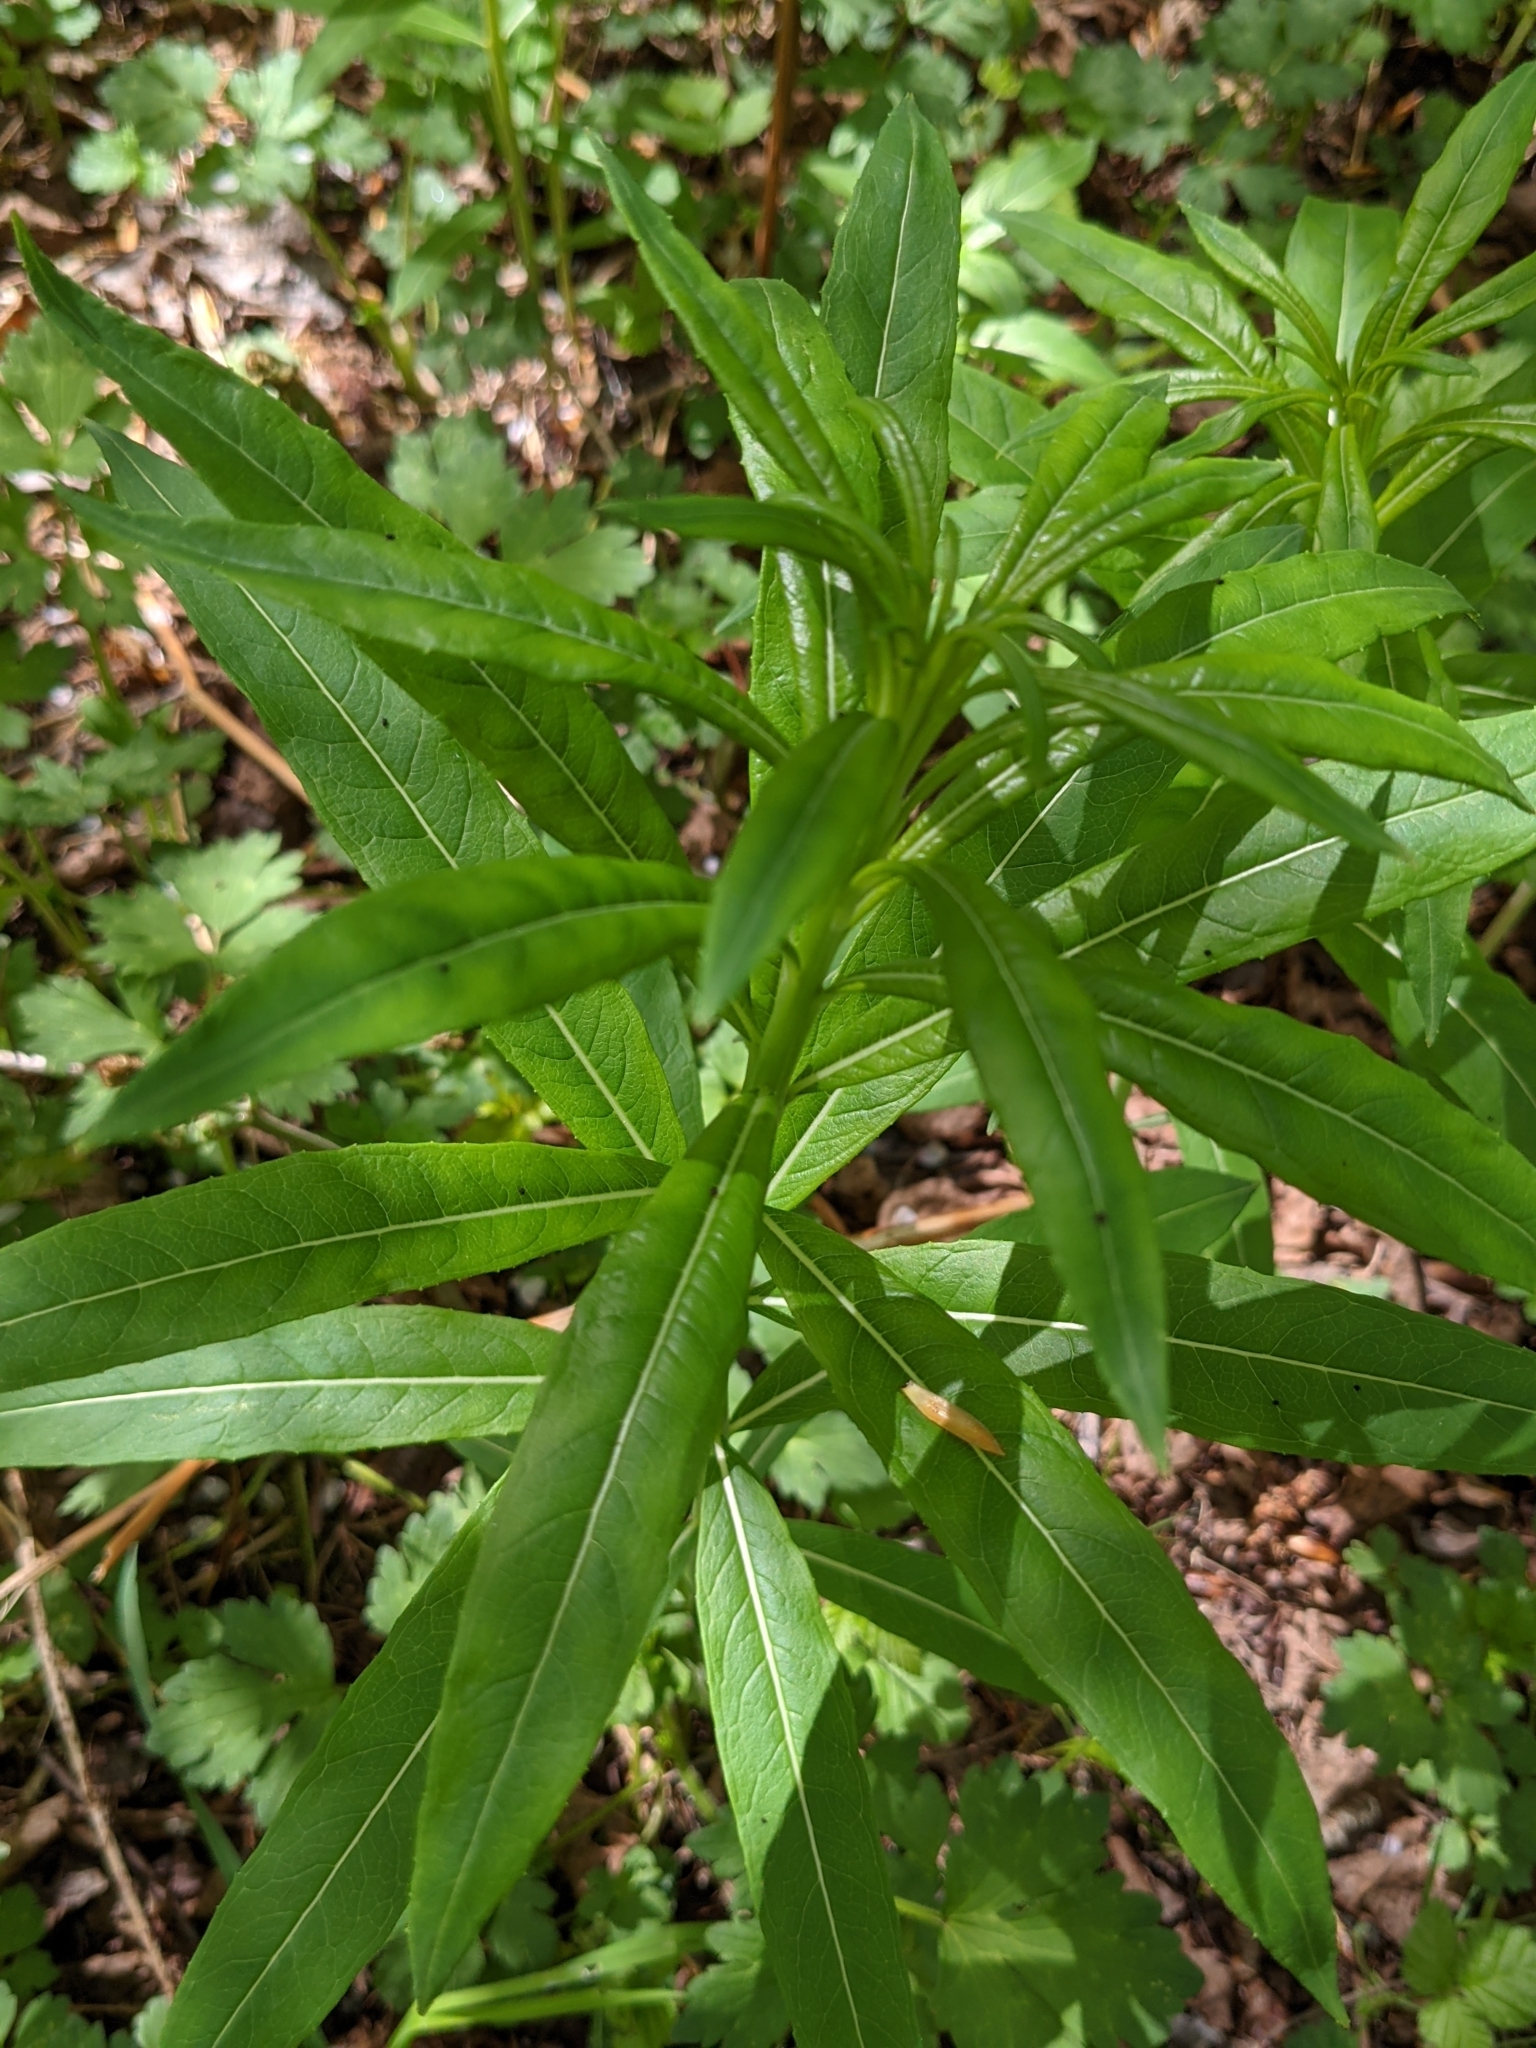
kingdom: Plantae
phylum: Tracheophyta
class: Magnoliopsida
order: Myrtales
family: Onagraceae
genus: Chamaenerion
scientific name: Chamaenerion angustifolium
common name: Fireweed
